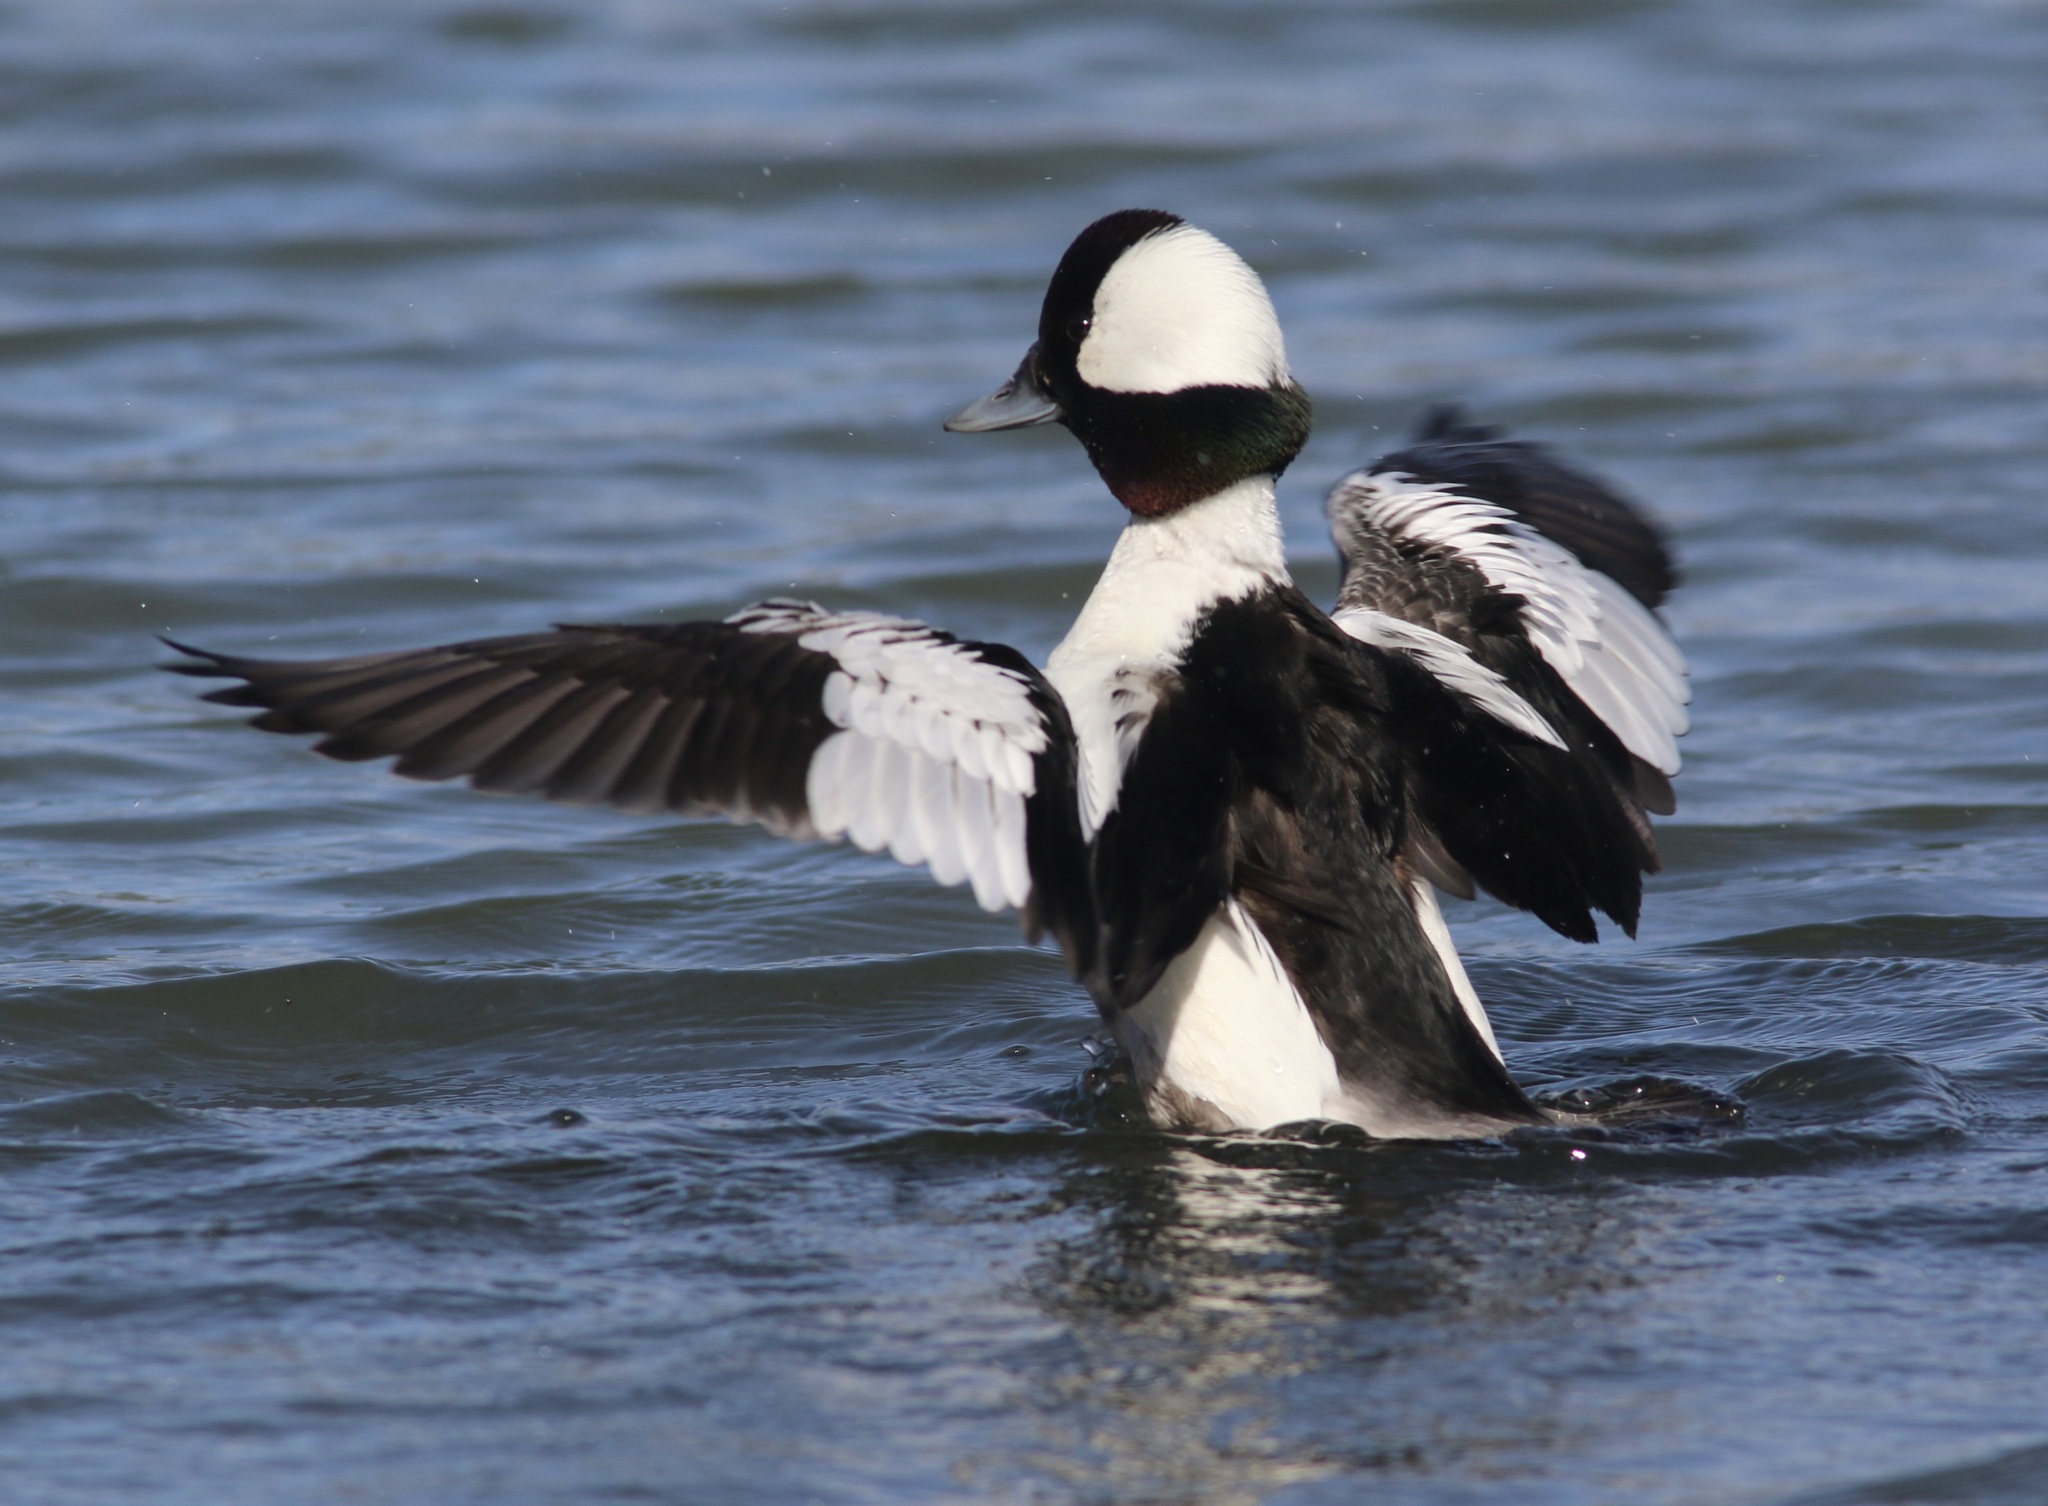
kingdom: Animalia
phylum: Chordata
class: Aves
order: Anseriformes
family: Anatidae
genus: Bucephala
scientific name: Bucephala albeola
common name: Bufflehead
